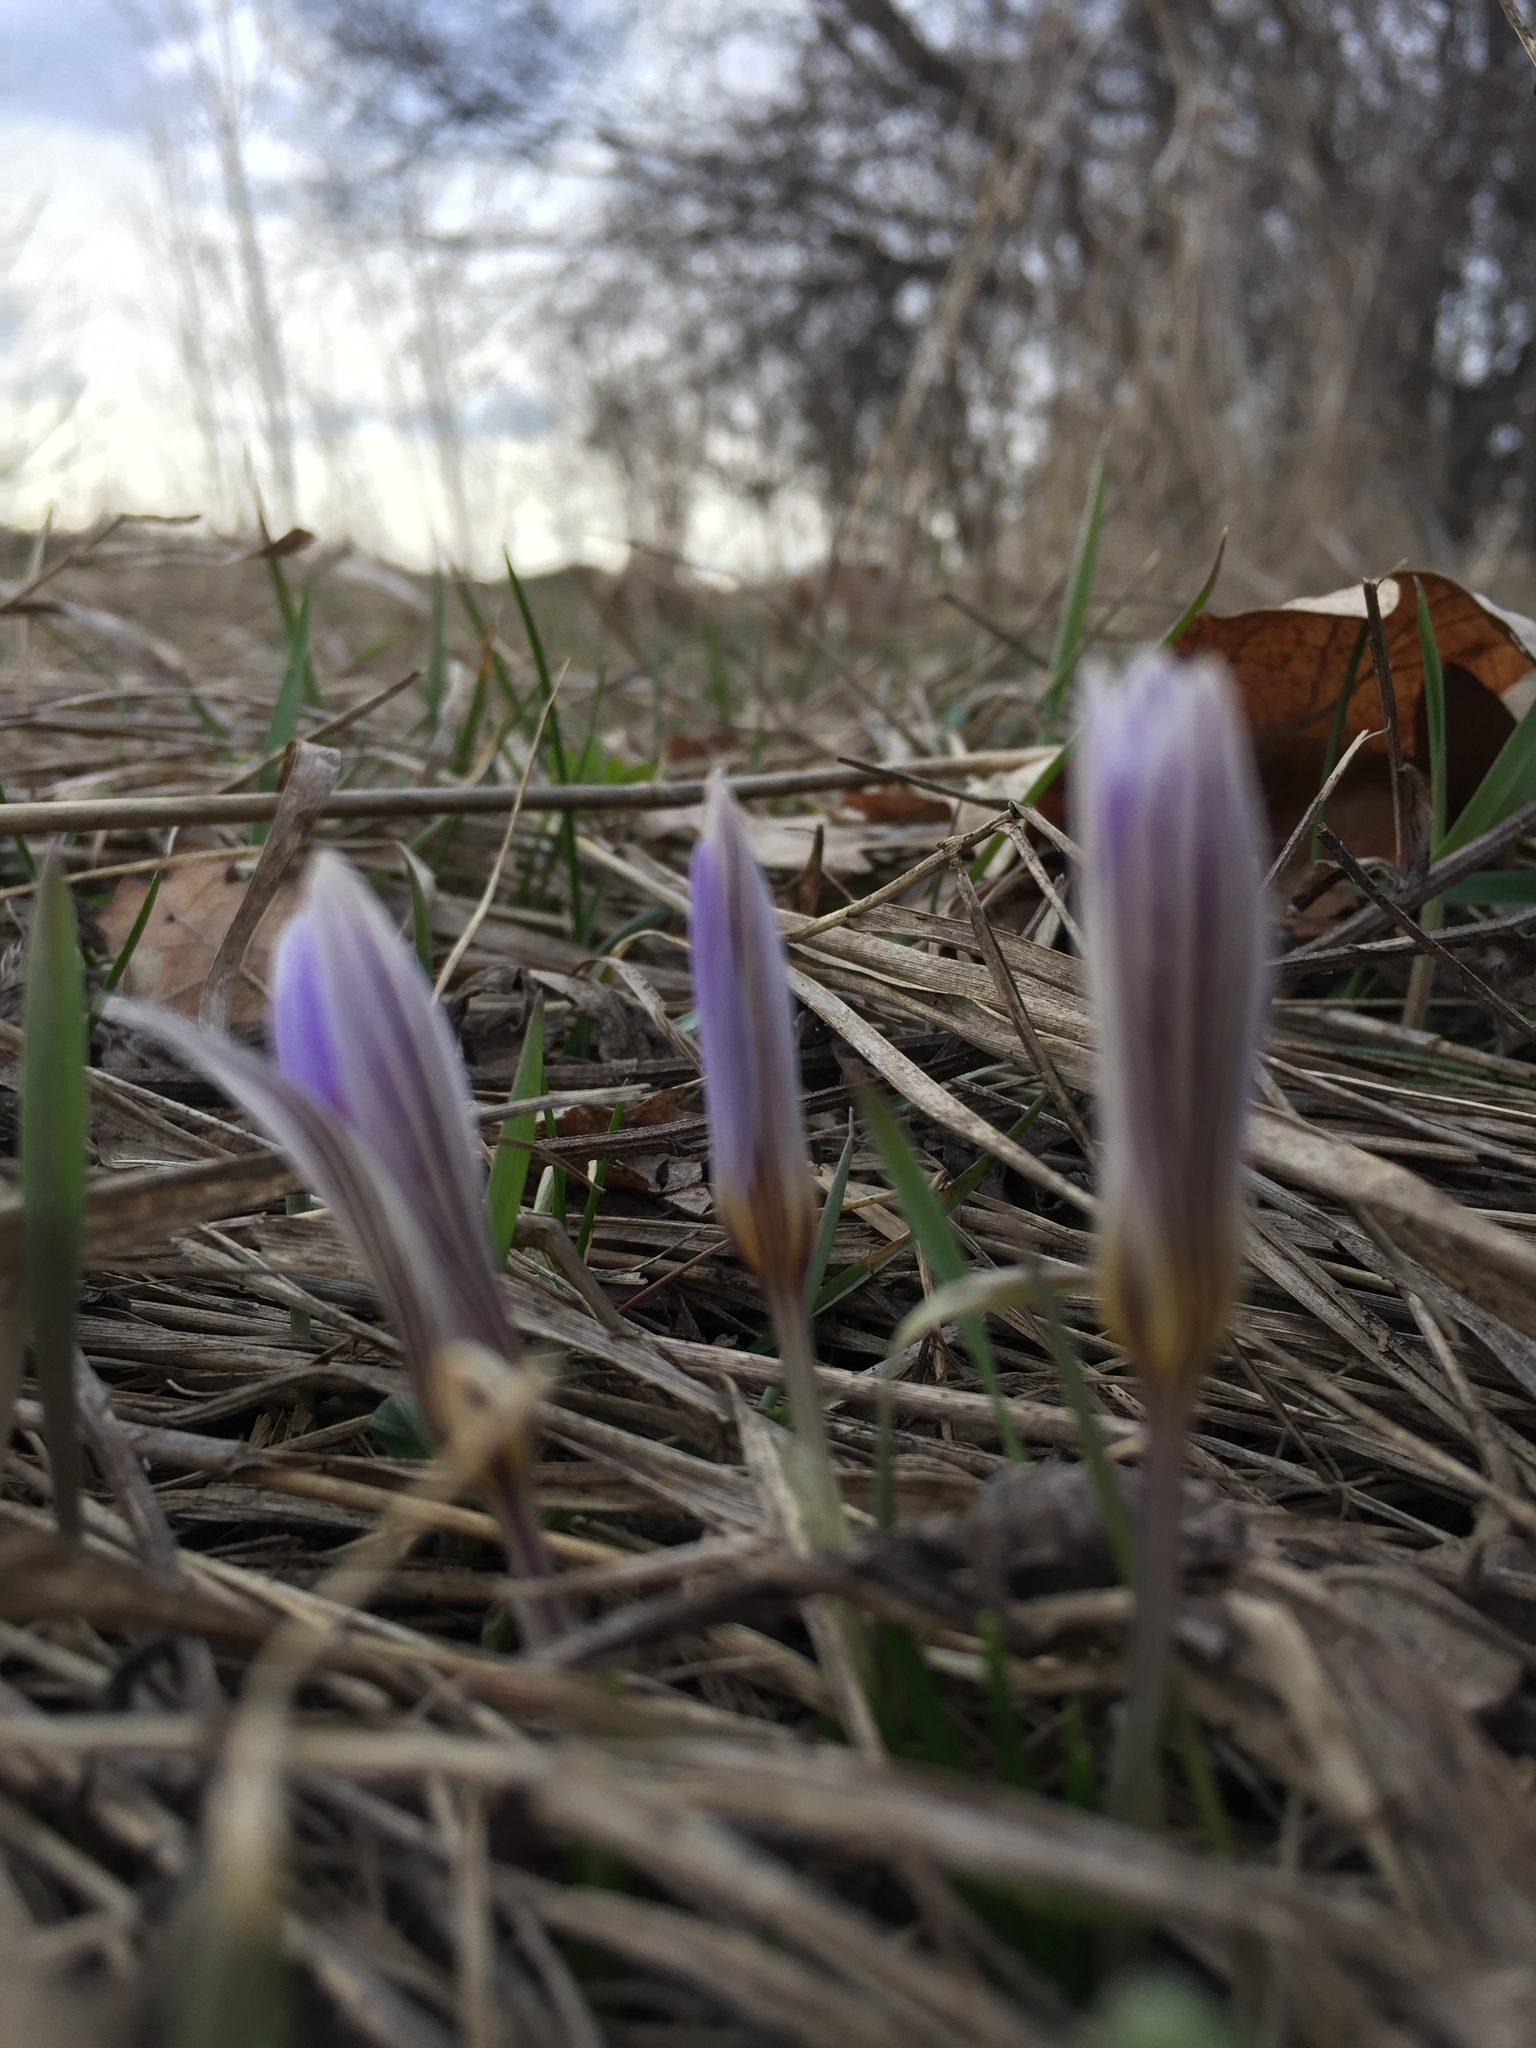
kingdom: Plantae
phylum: Tracheophyta
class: Liliopsida
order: Asparagales
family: Iridaceae
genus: Crocus
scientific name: Crocus reticulatus
